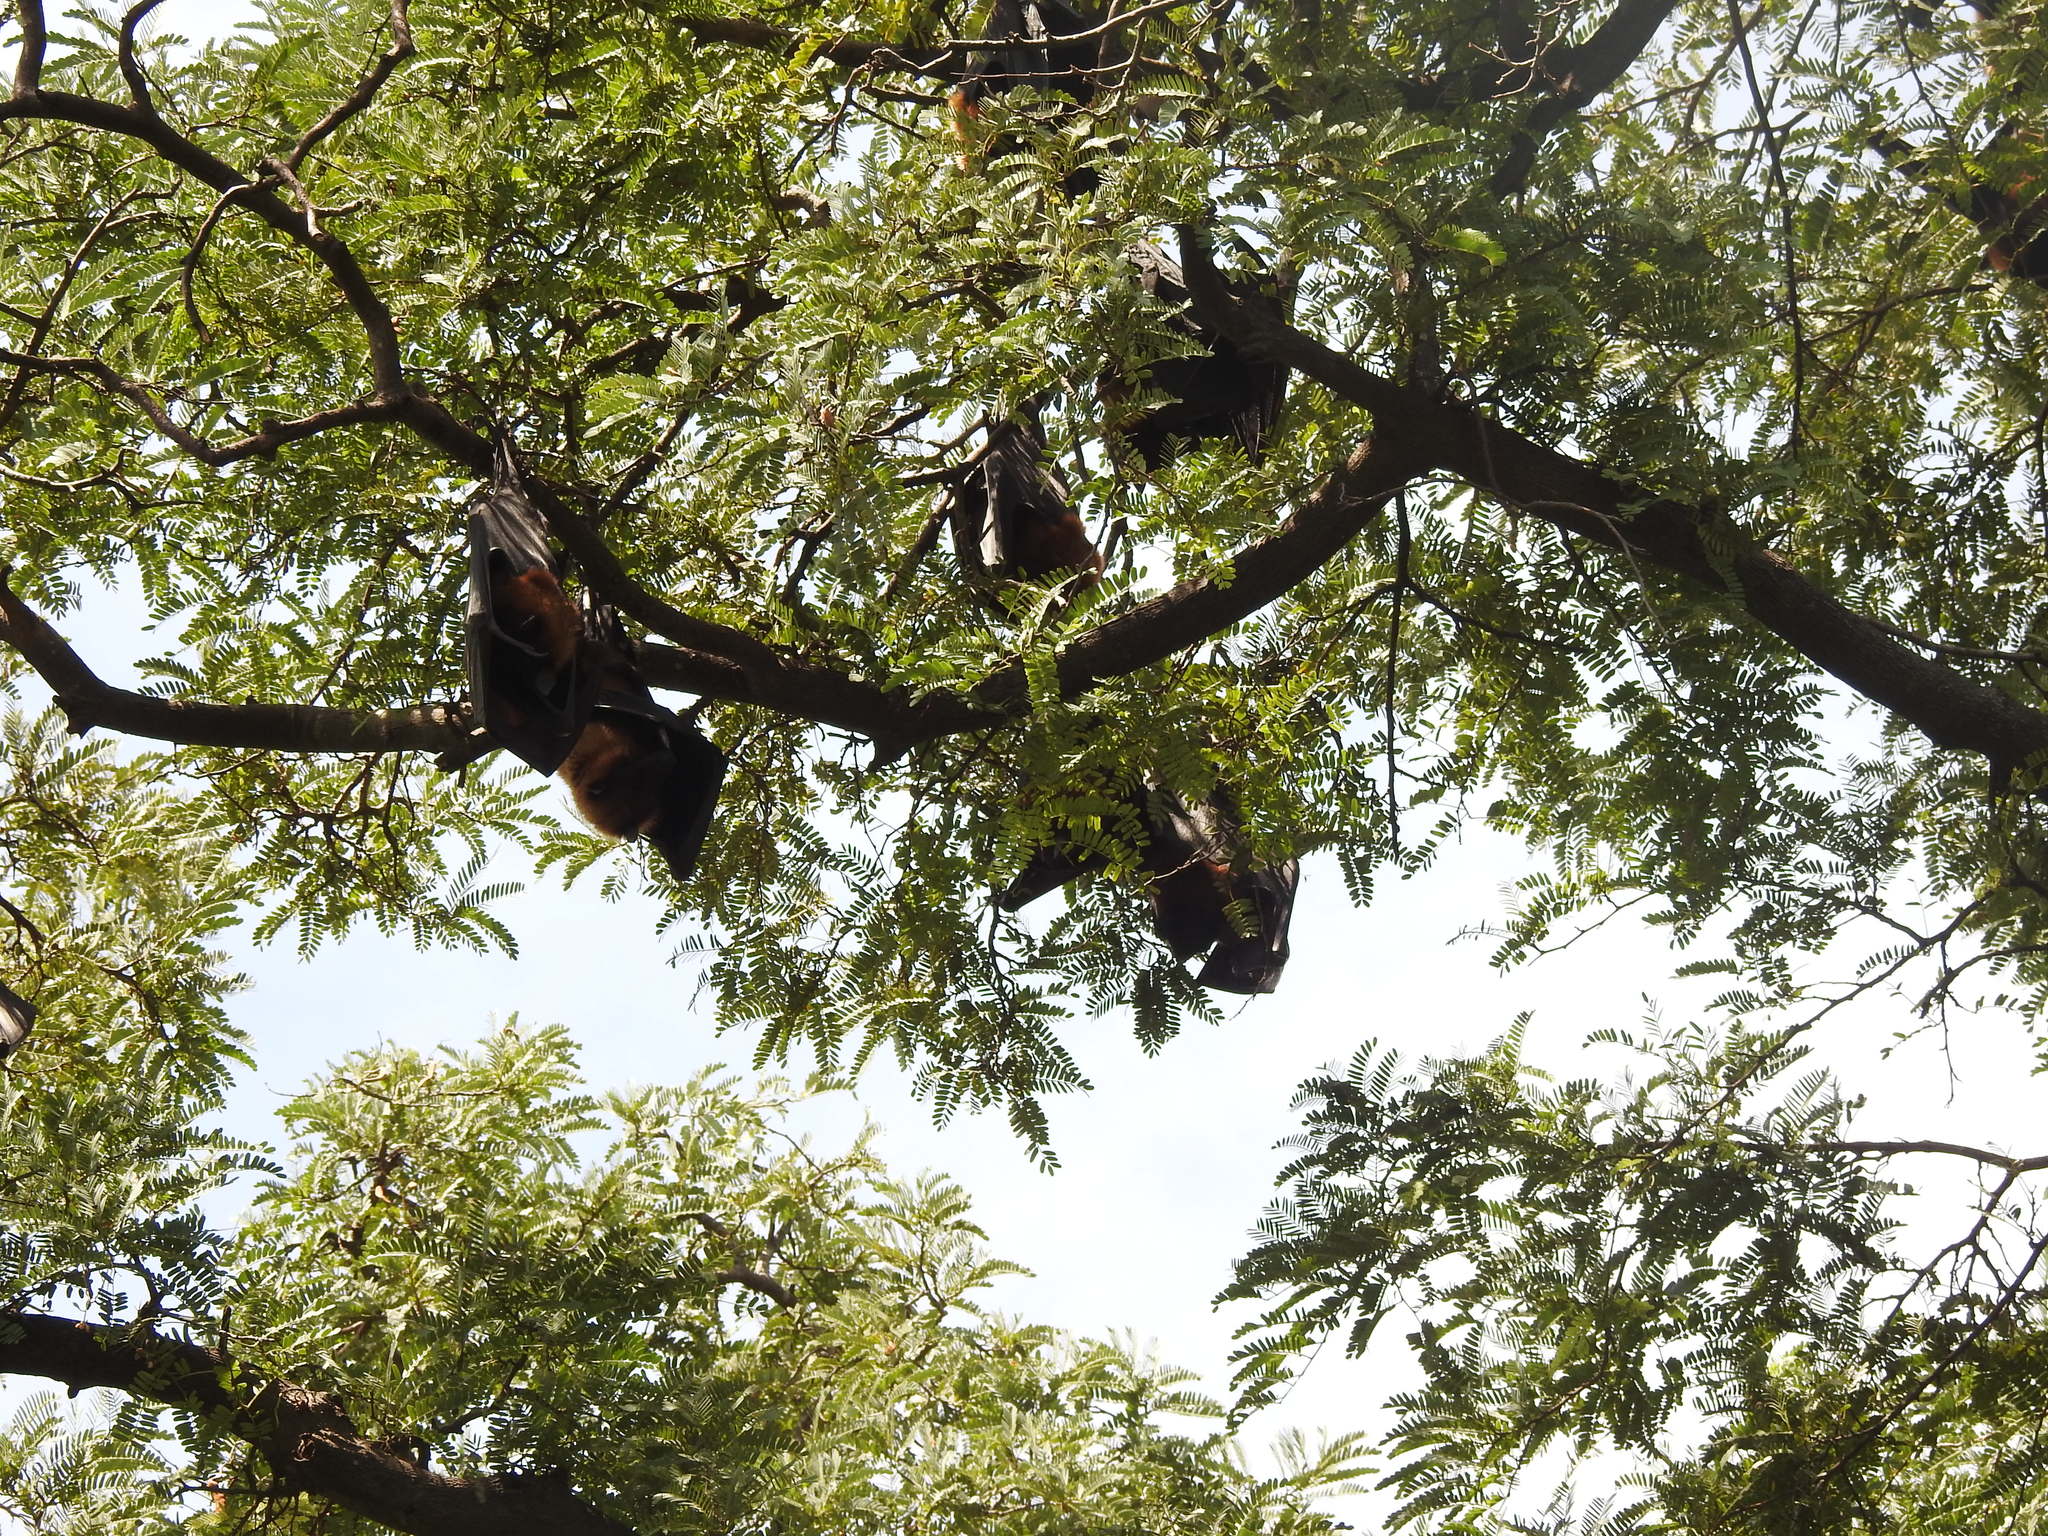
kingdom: Animalia
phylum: Chordata
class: Mammalia
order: Chiroptera
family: Pteropodidae
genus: Pteropus
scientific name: Pteropus vampyrus
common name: Large flying fox
